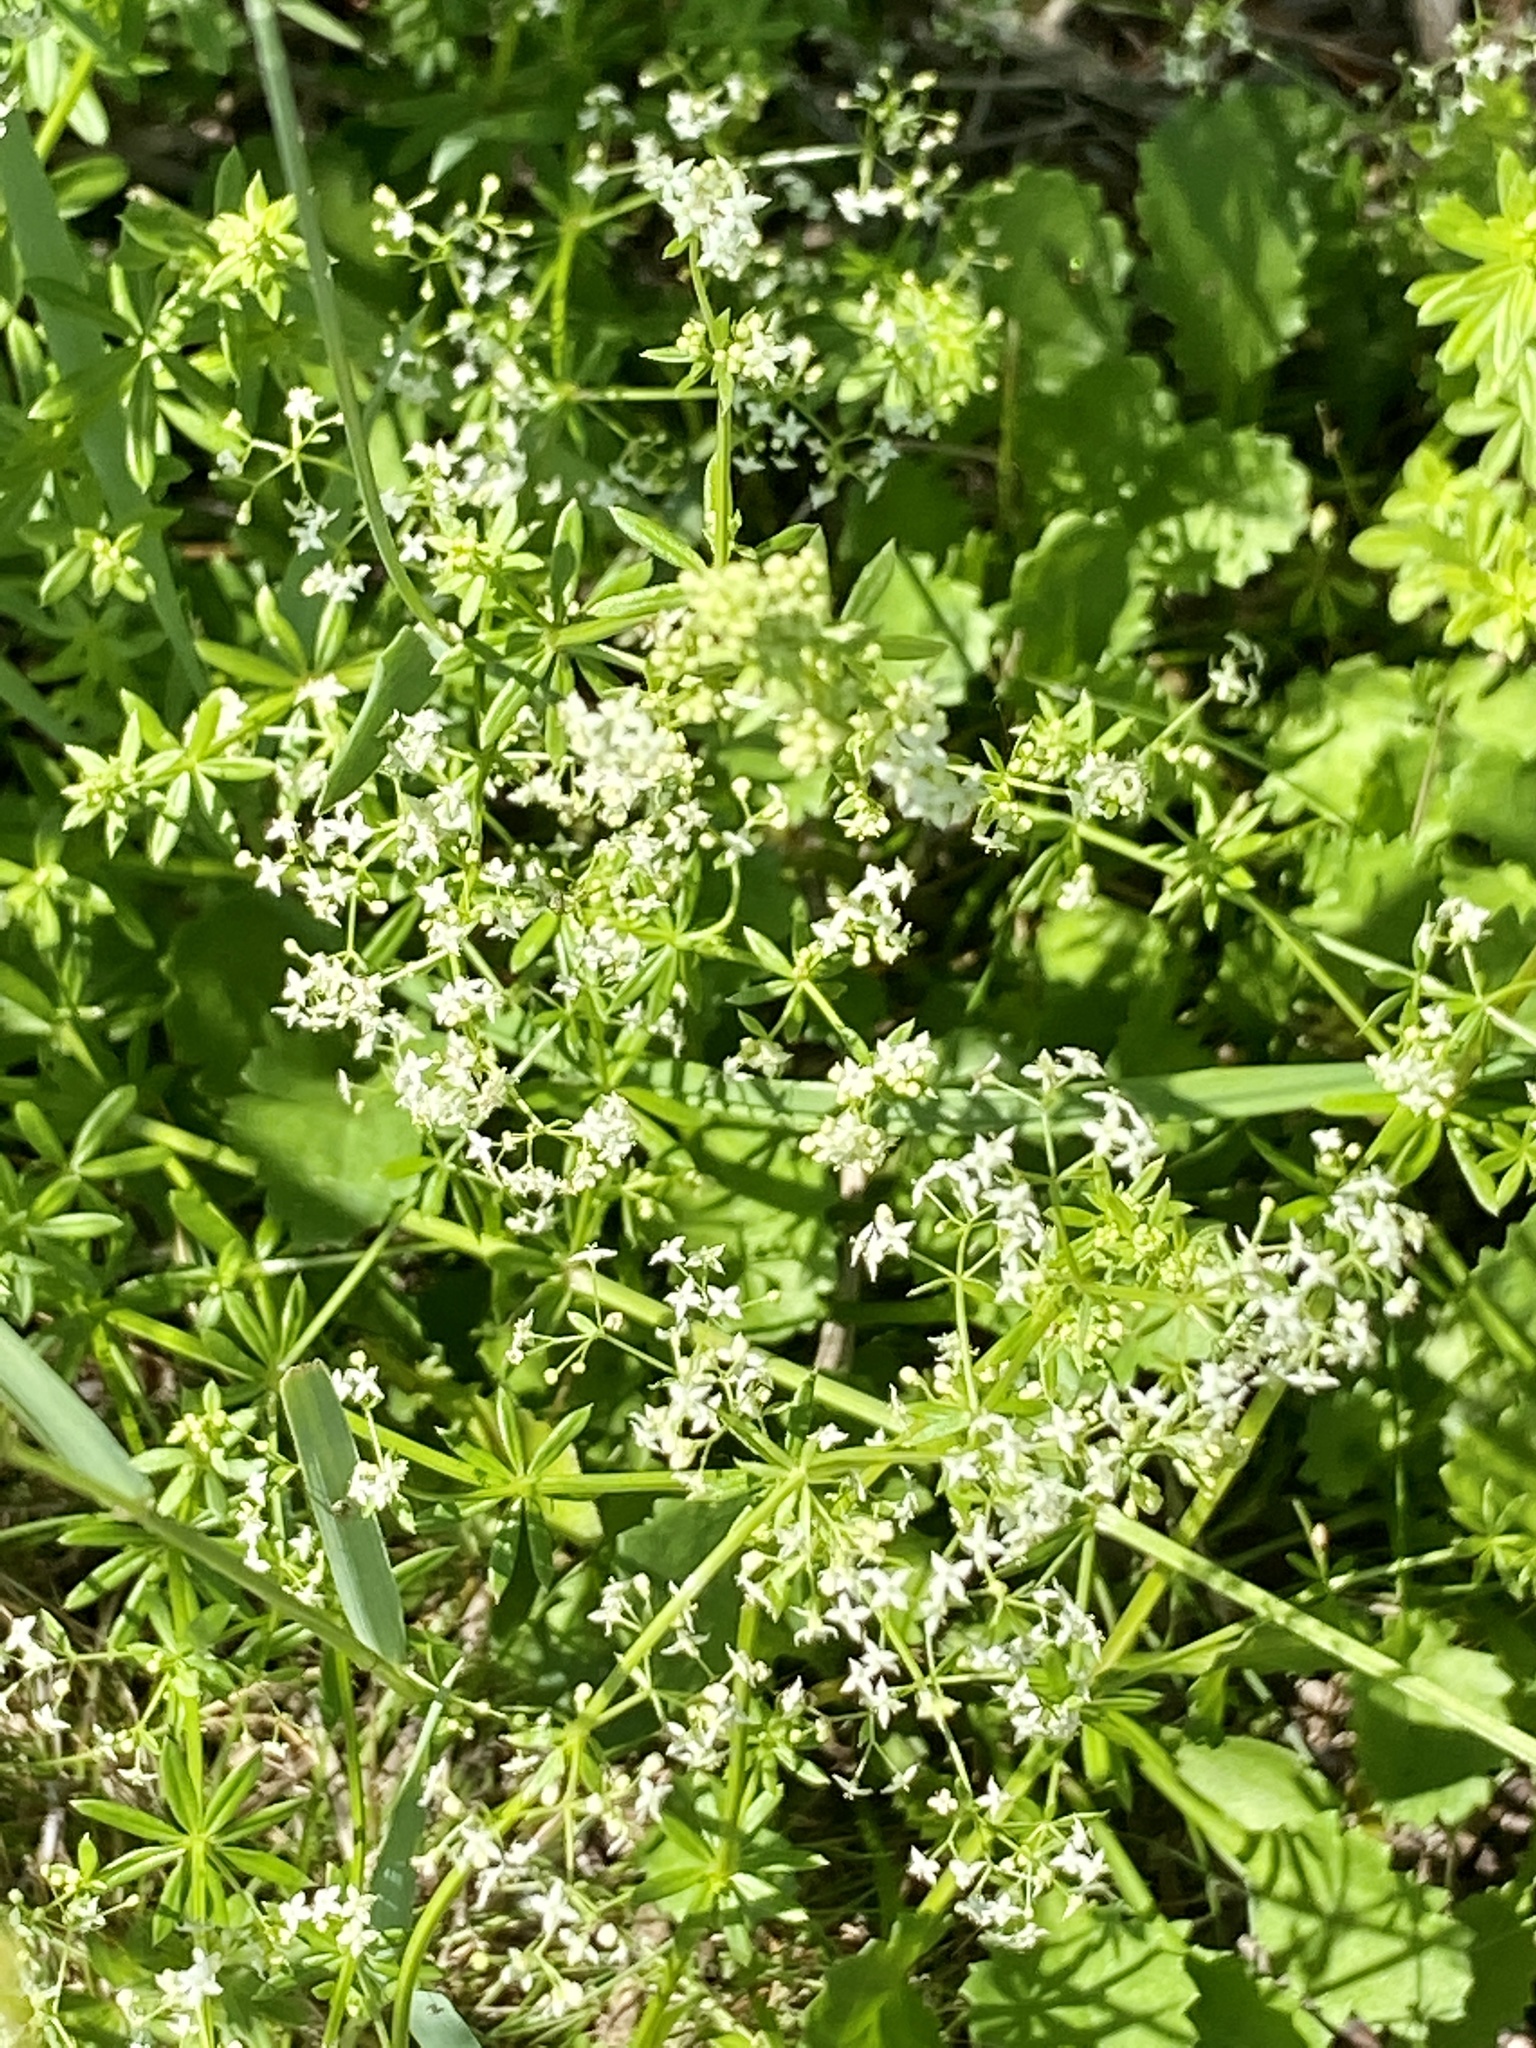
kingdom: Plantae
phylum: Tracheophyta
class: Magnoliopsida
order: Gentianales
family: Rubiaceae
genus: Galium
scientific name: Galium mollugo
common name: Hedge bedstraw
